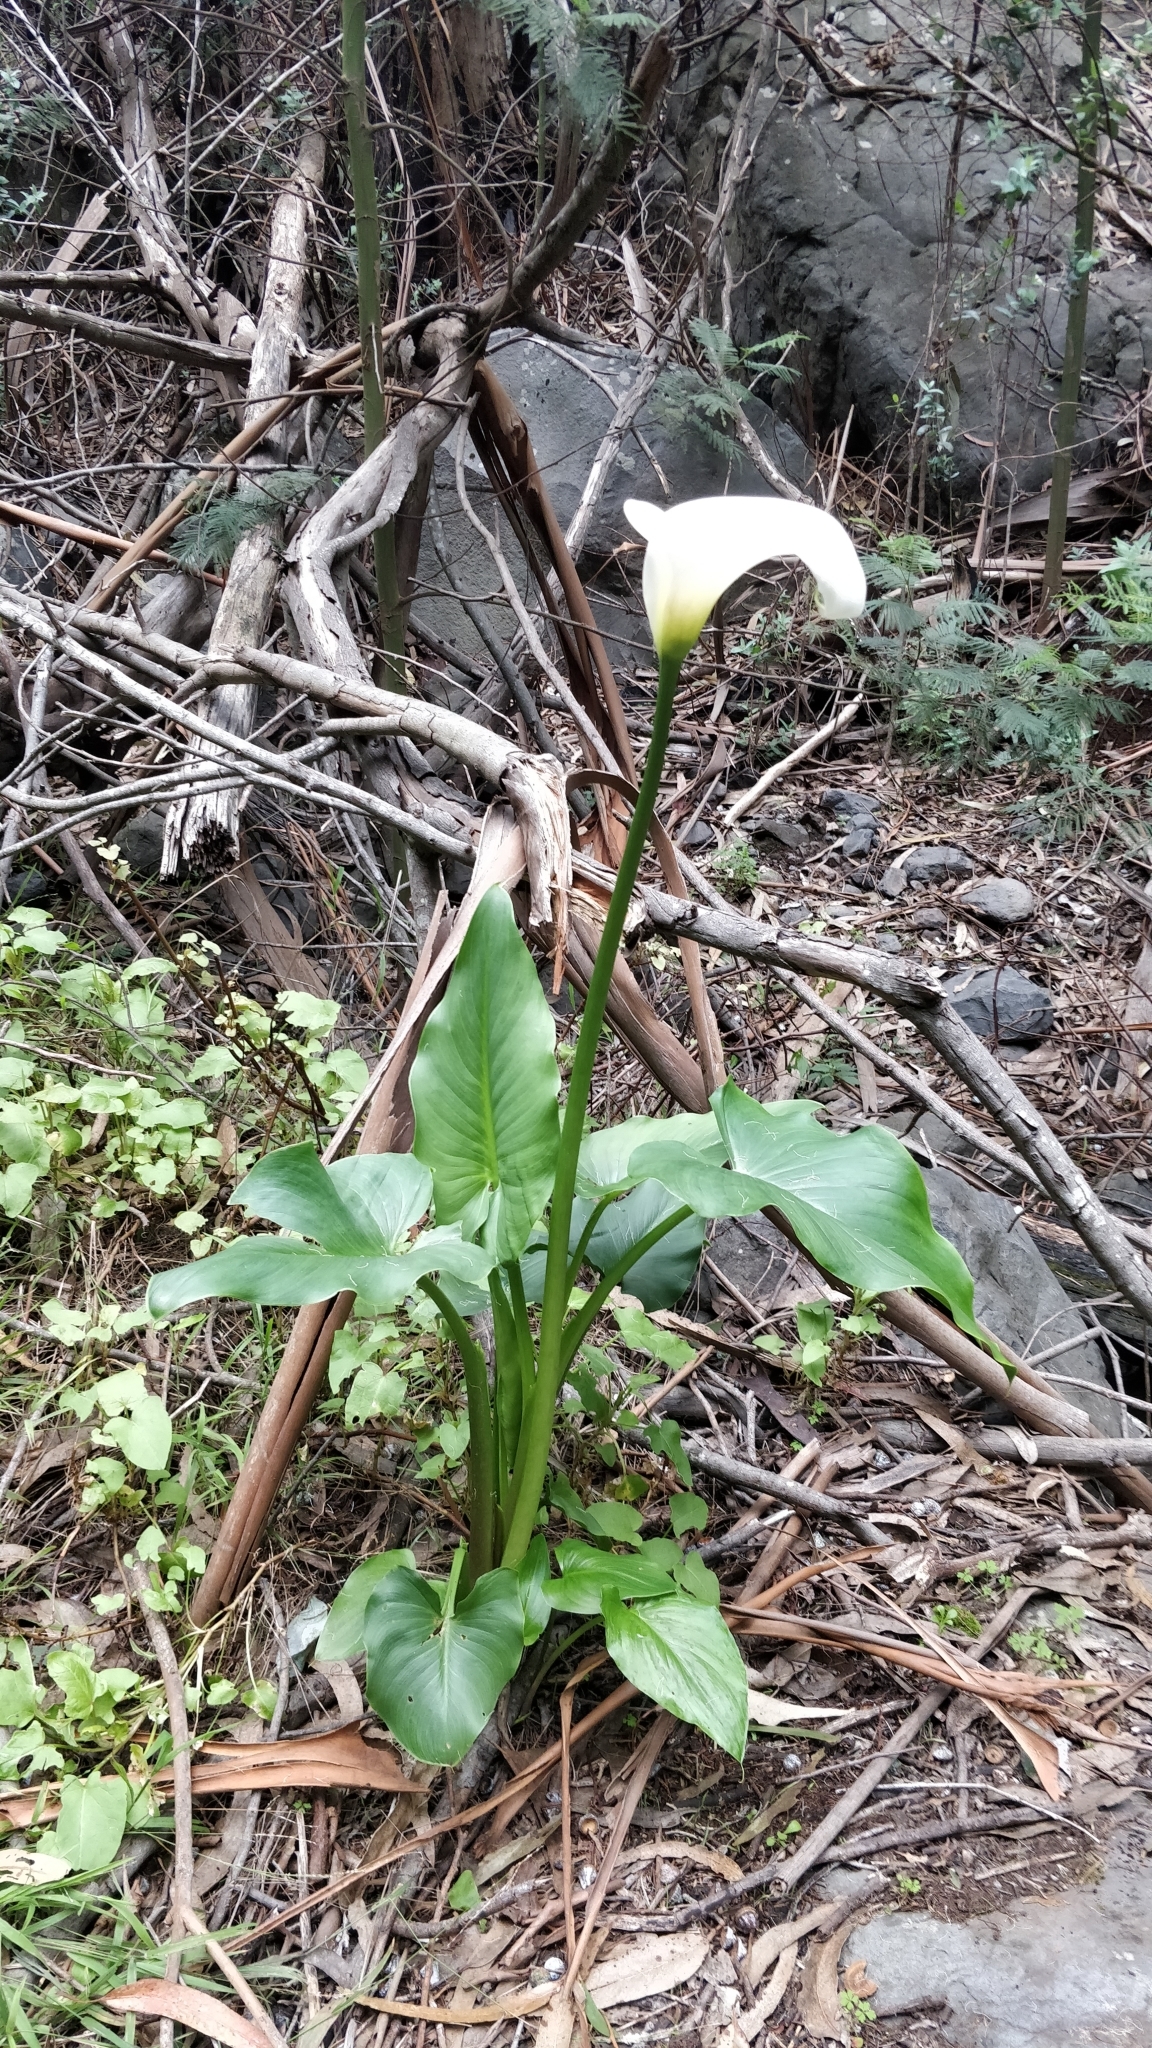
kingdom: Plantae
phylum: Tracheophyta
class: Liliopsida
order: Alismatales
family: Araceae
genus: Zantedeschia
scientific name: Zantedeschia aethiopica
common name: Altar-lily
